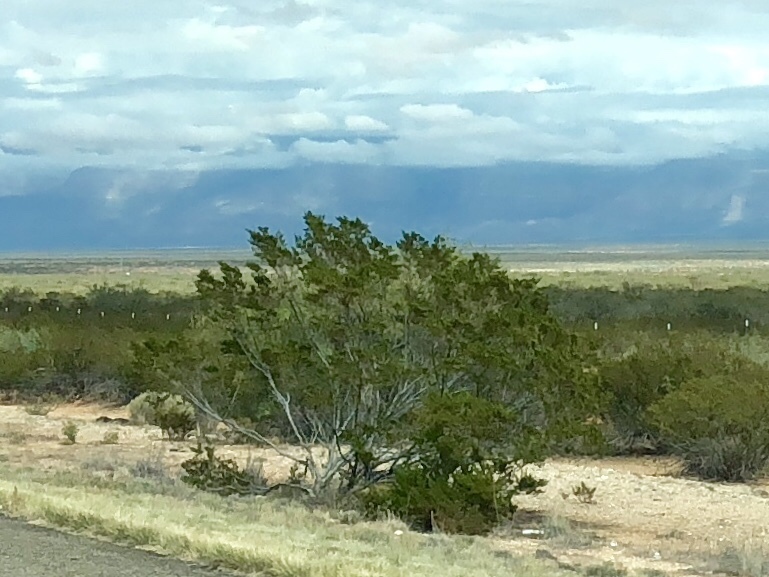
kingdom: Plantae
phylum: Tracheophyta
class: Magnoliopsida
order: Zygophyllales
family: Zygophyllaceae
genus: Larrea
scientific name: Larrea tridentata
